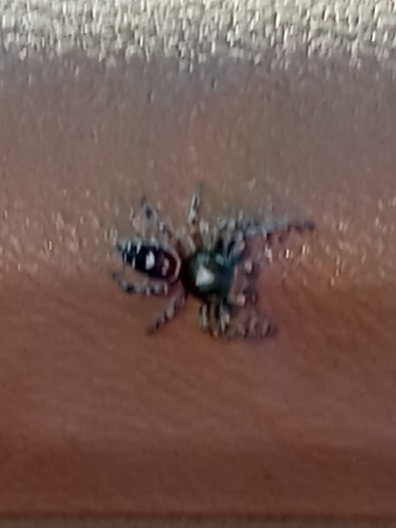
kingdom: Animalia
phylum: Arthropoda
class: Arachnida
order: Araneae
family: Salticidae
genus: Phidippus
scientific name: Phidippus putnami
